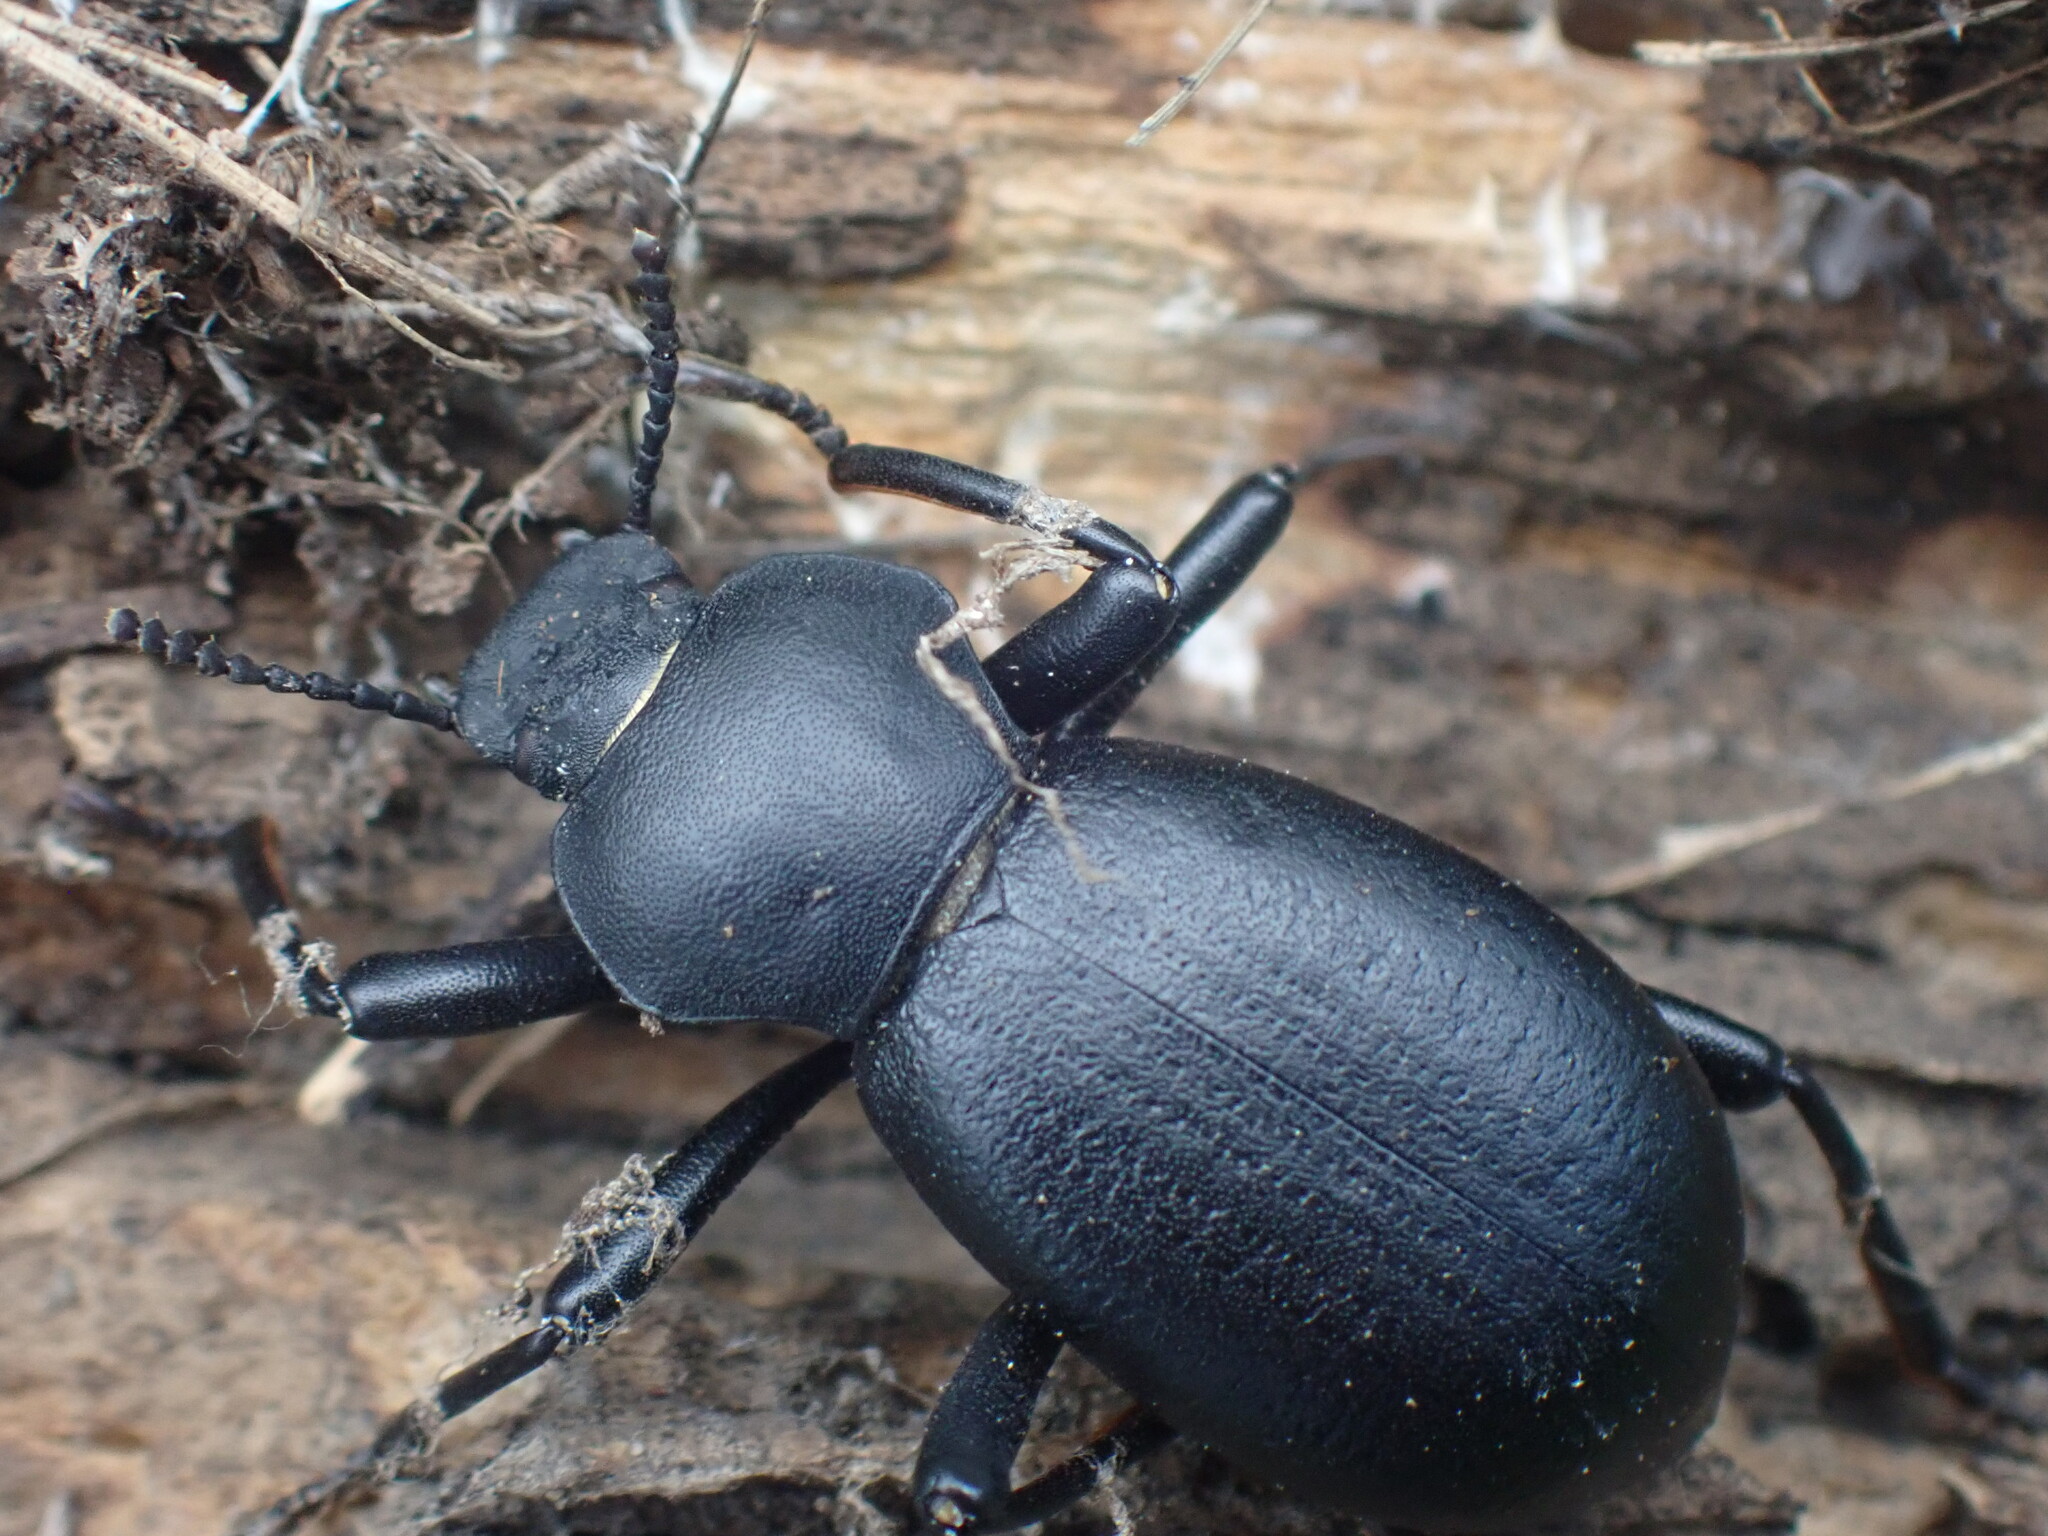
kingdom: Animalia
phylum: Arthropoda
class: Insecta
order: Coleoptera
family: Tenebrionidae
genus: Coelocnemis
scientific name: Coelocnemis dilaticollis
